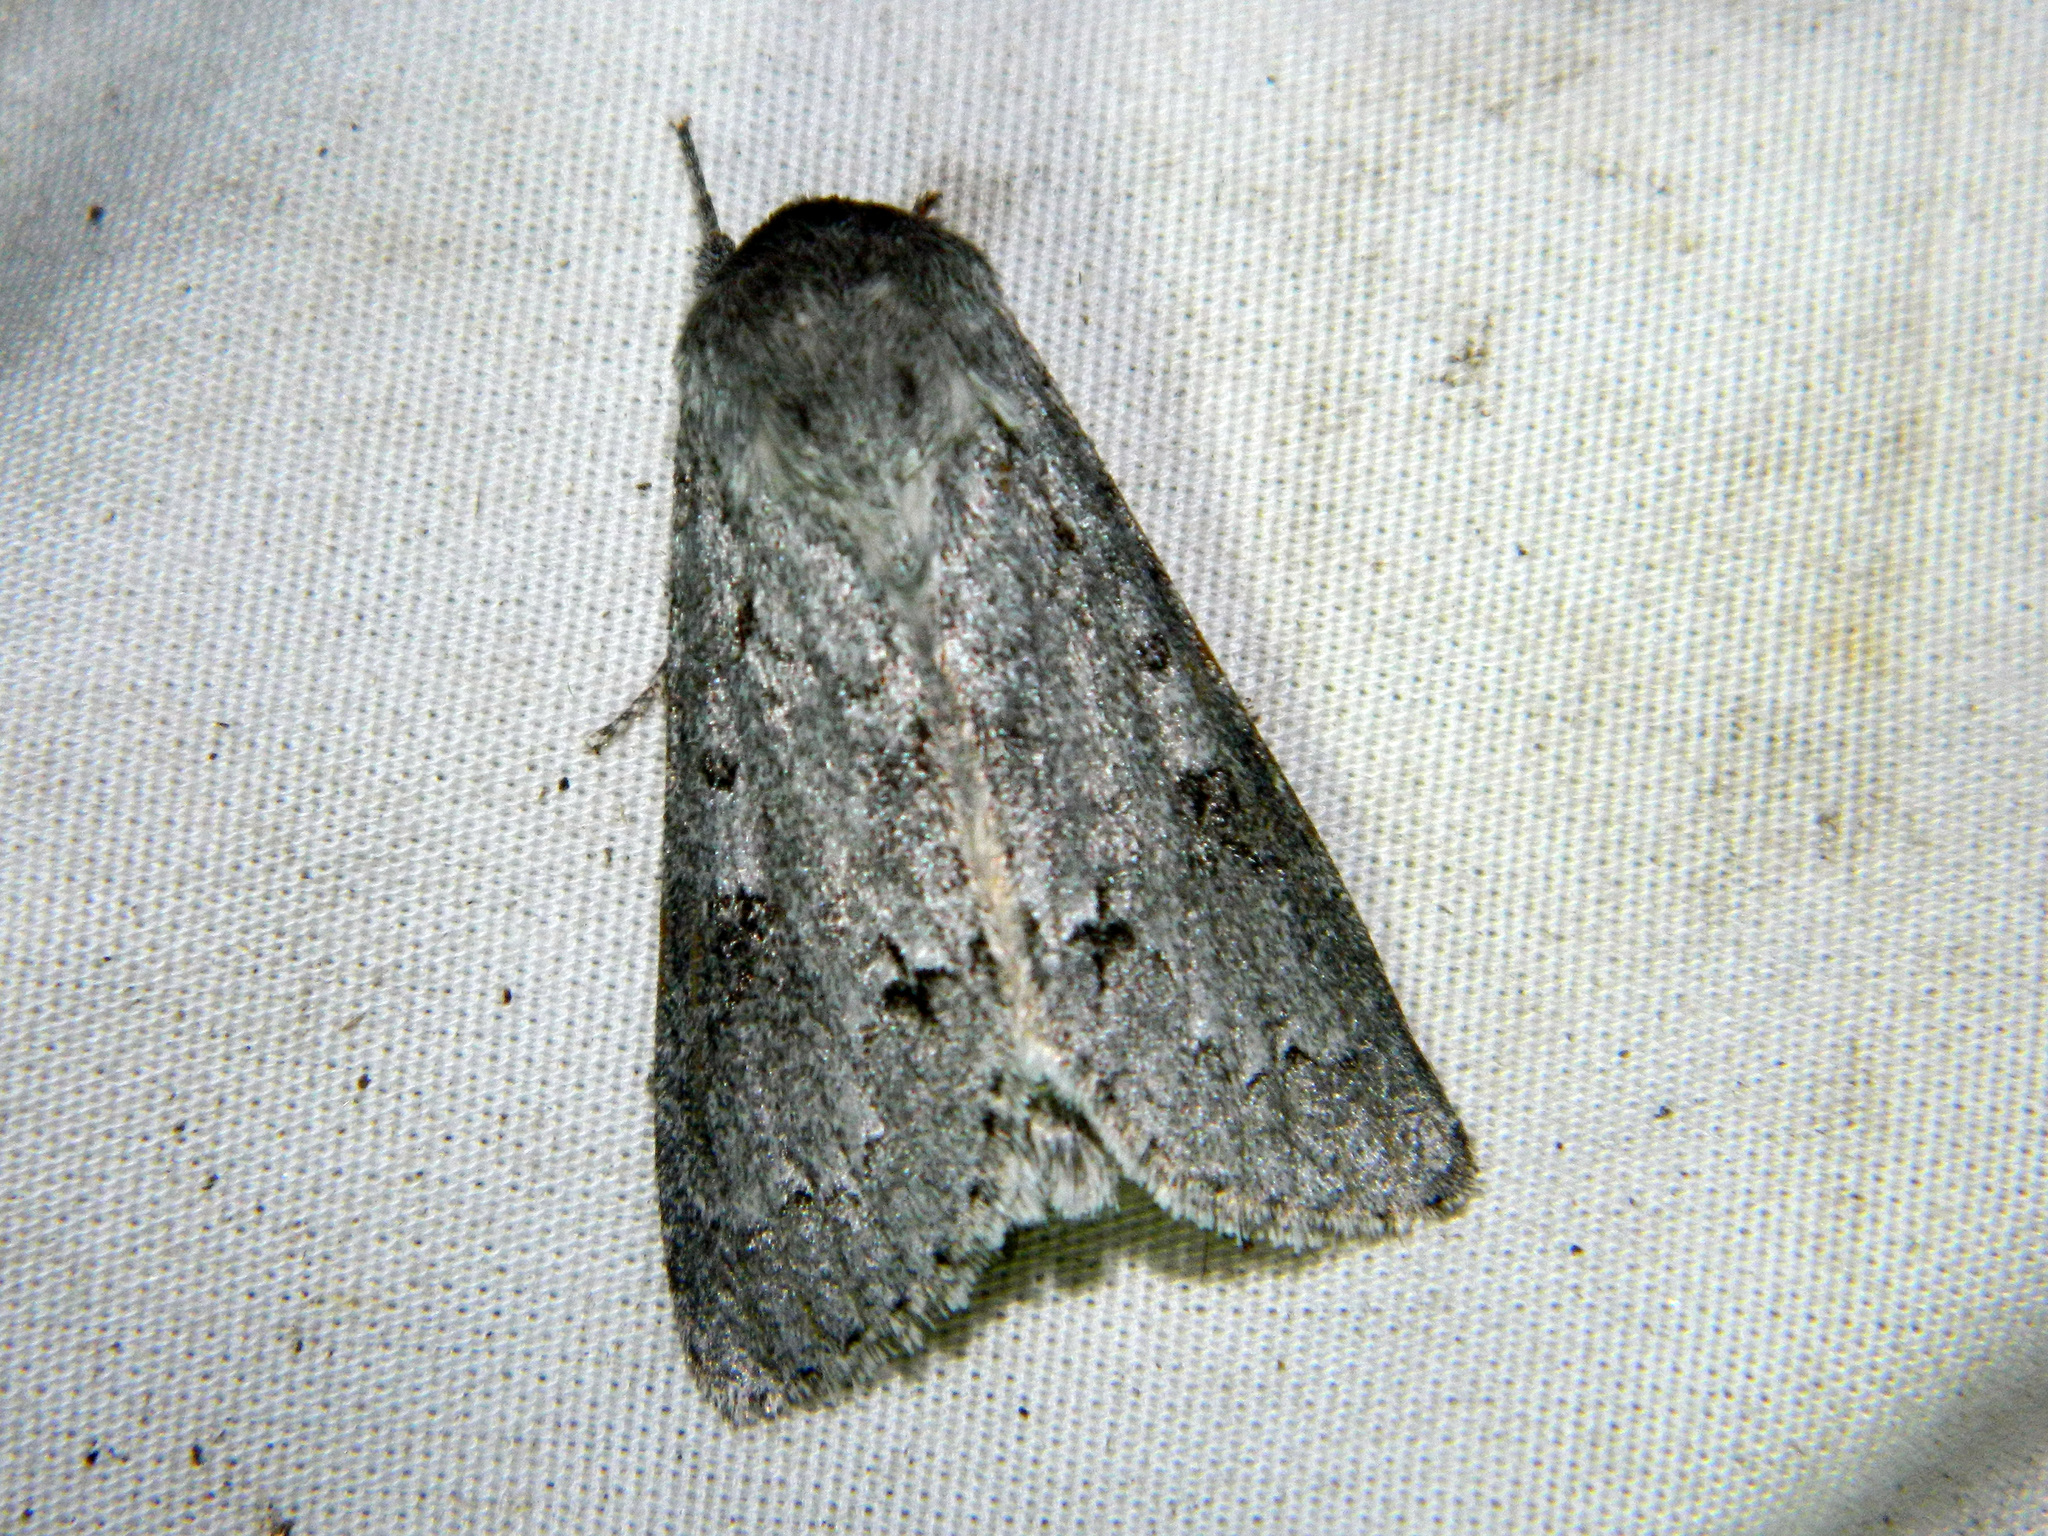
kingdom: Animalia
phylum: Arthropoda
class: Insecta
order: Lepidoptera
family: Noctuidae
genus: Acronicta
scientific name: Acronicta insita
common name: Large gray dagger
